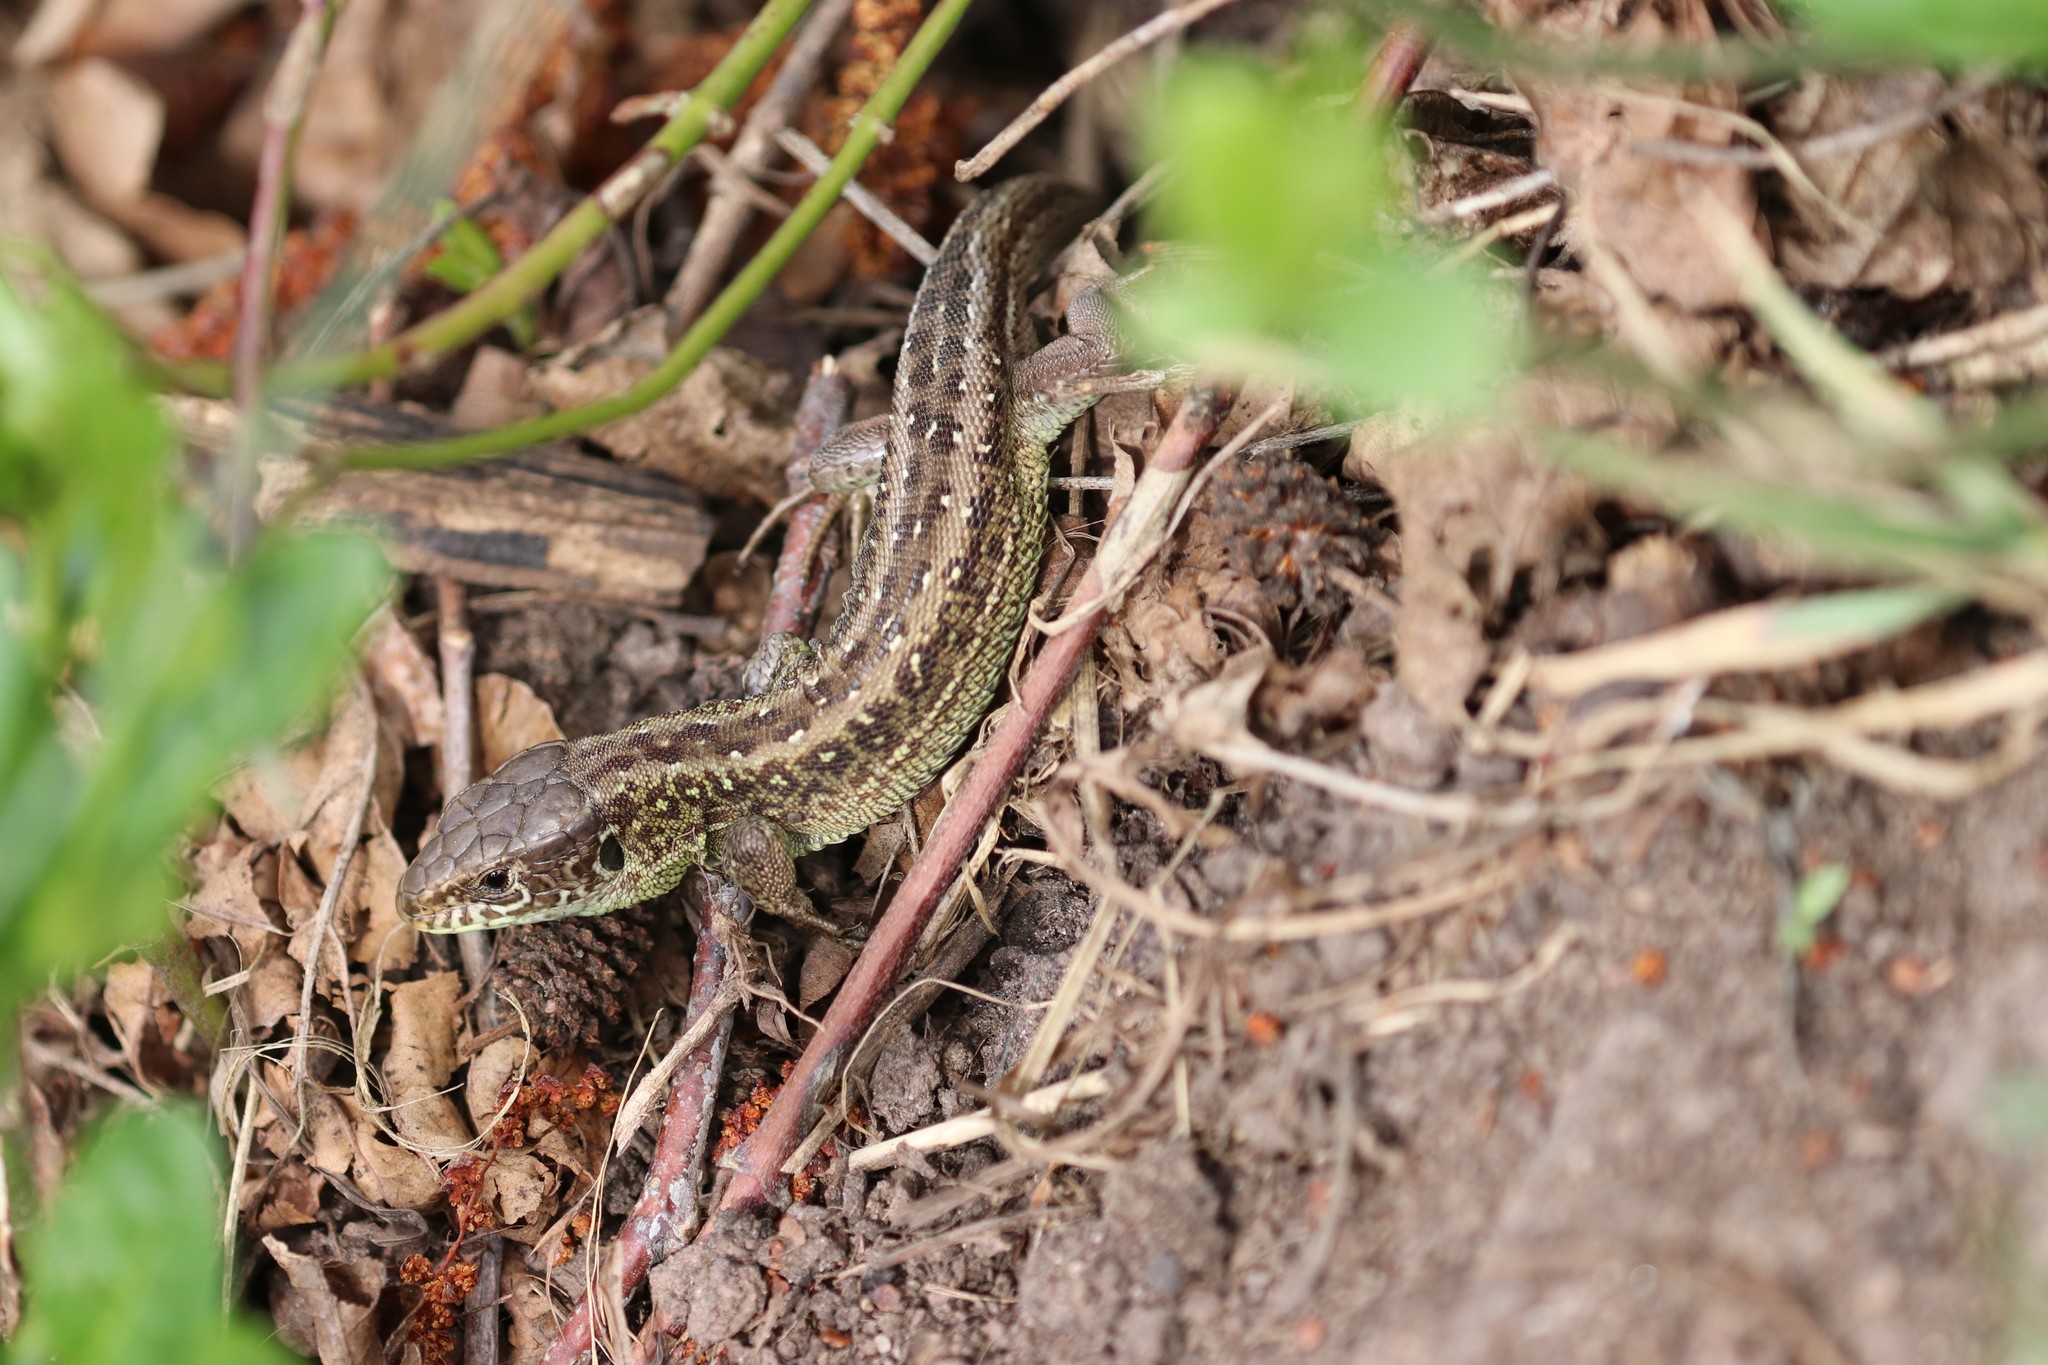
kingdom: Animalia
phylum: Chordata
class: Squamata
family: Lacertidae
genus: Lacerta
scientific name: Lacerta agilis
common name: Sand lizard
